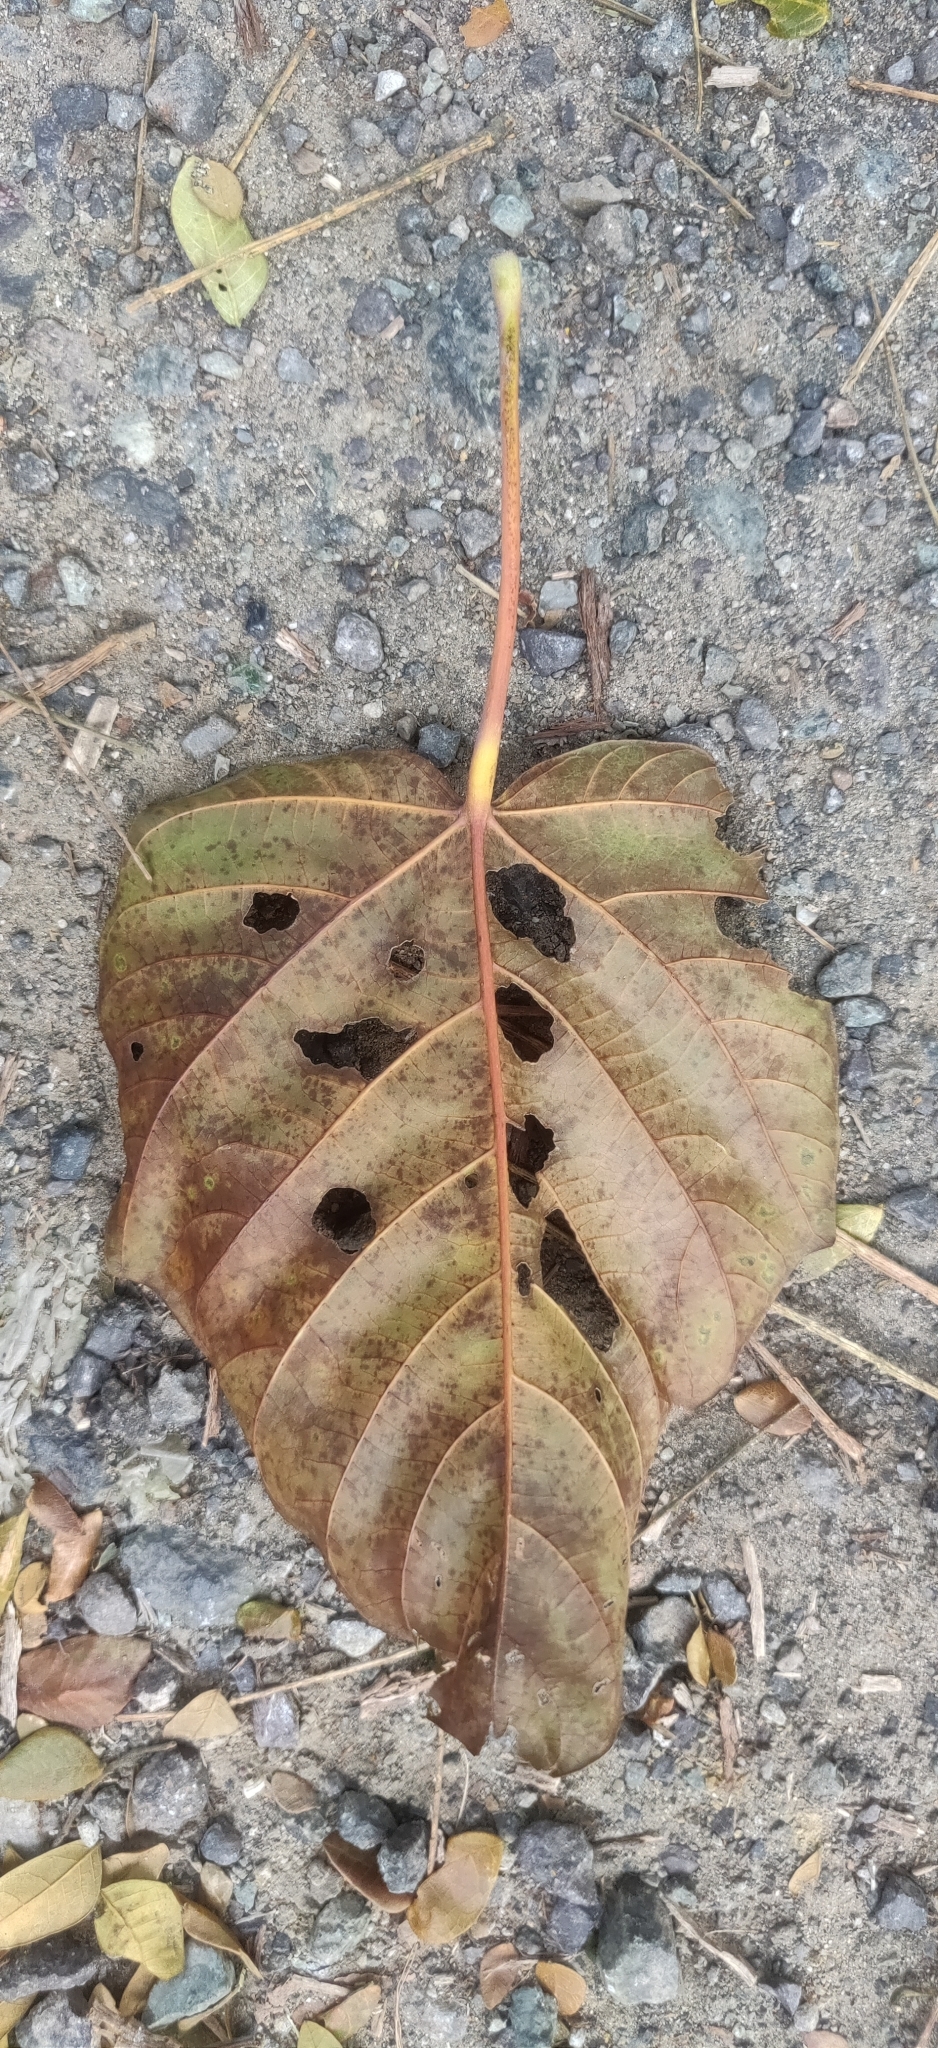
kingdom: Plantae
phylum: Tracheophyta
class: Magnoliopsida
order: Malvales
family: Malvaceae
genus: Pterocymbium
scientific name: Pterocymbium tinctorium
